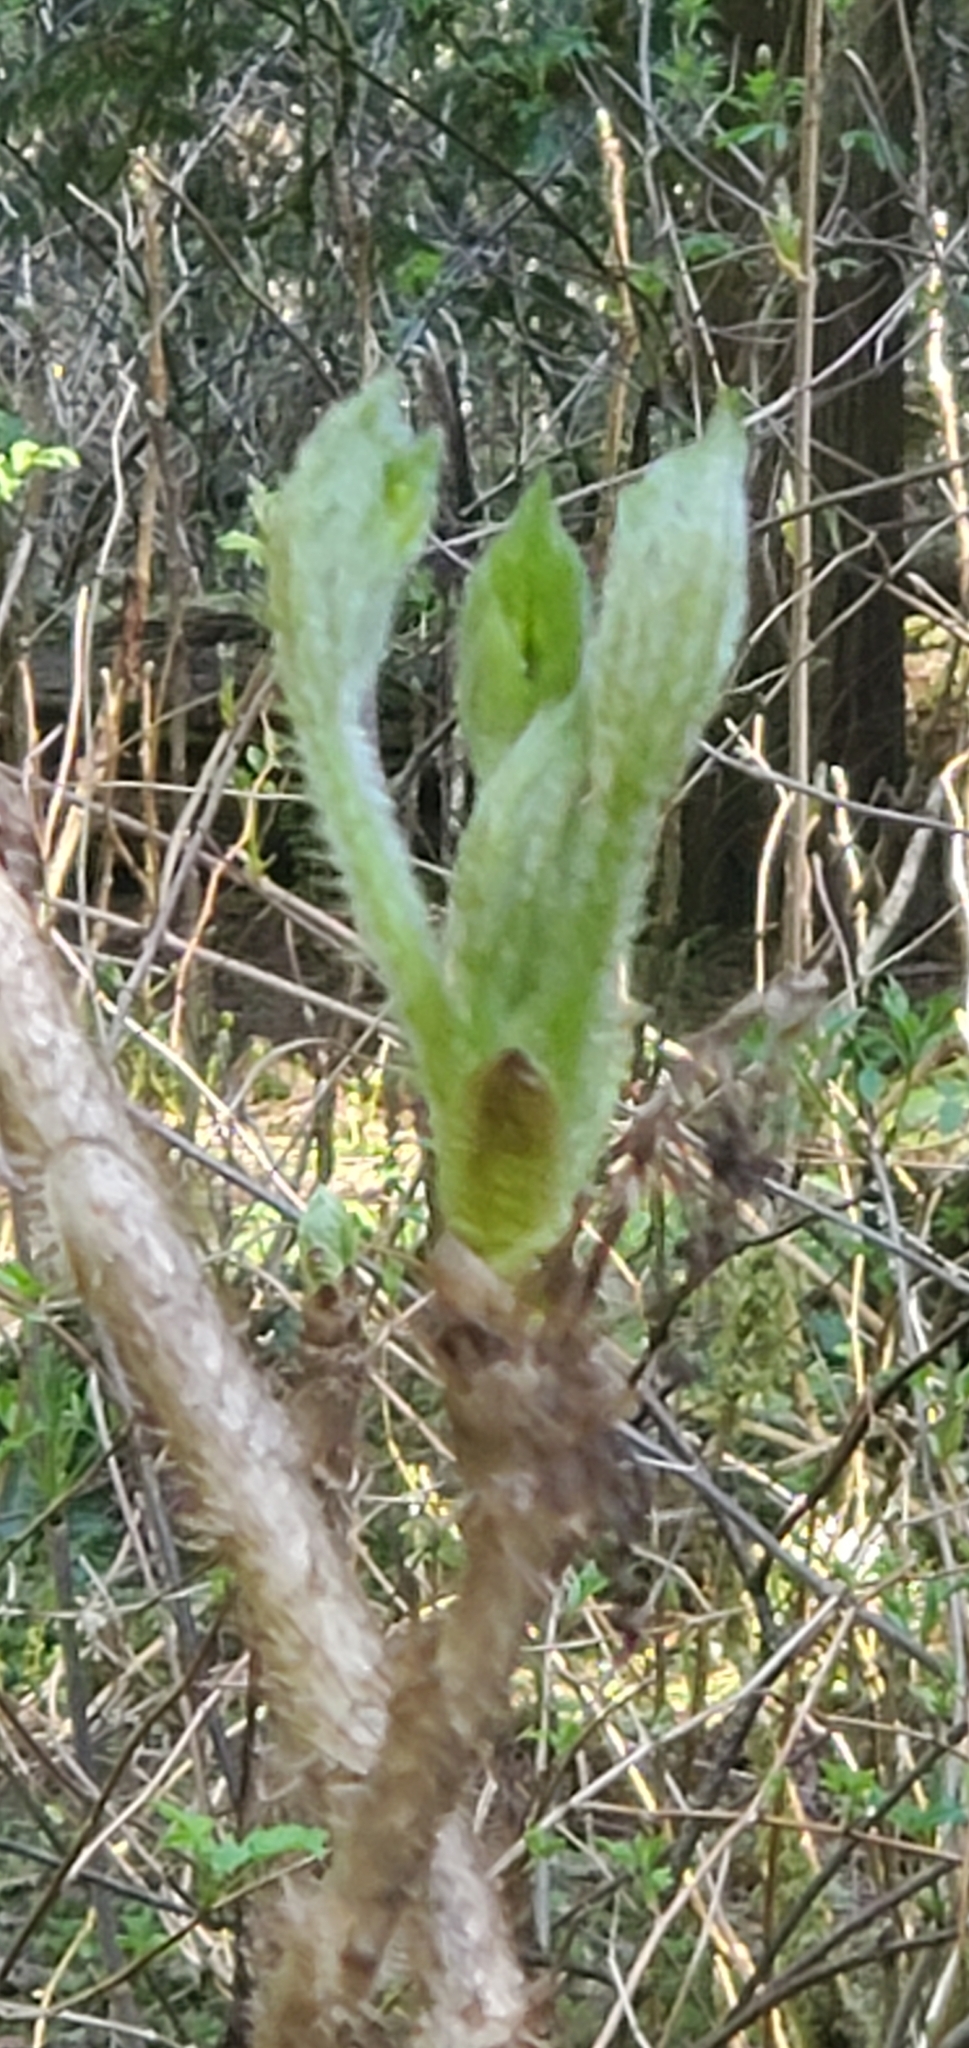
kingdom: Plantae
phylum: Tracheophyta
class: Magnoliopsida
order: Apiales
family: Araliaceae
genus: Oplopanax
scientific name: Oplopanax horridus
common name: Devil's walking-stick
